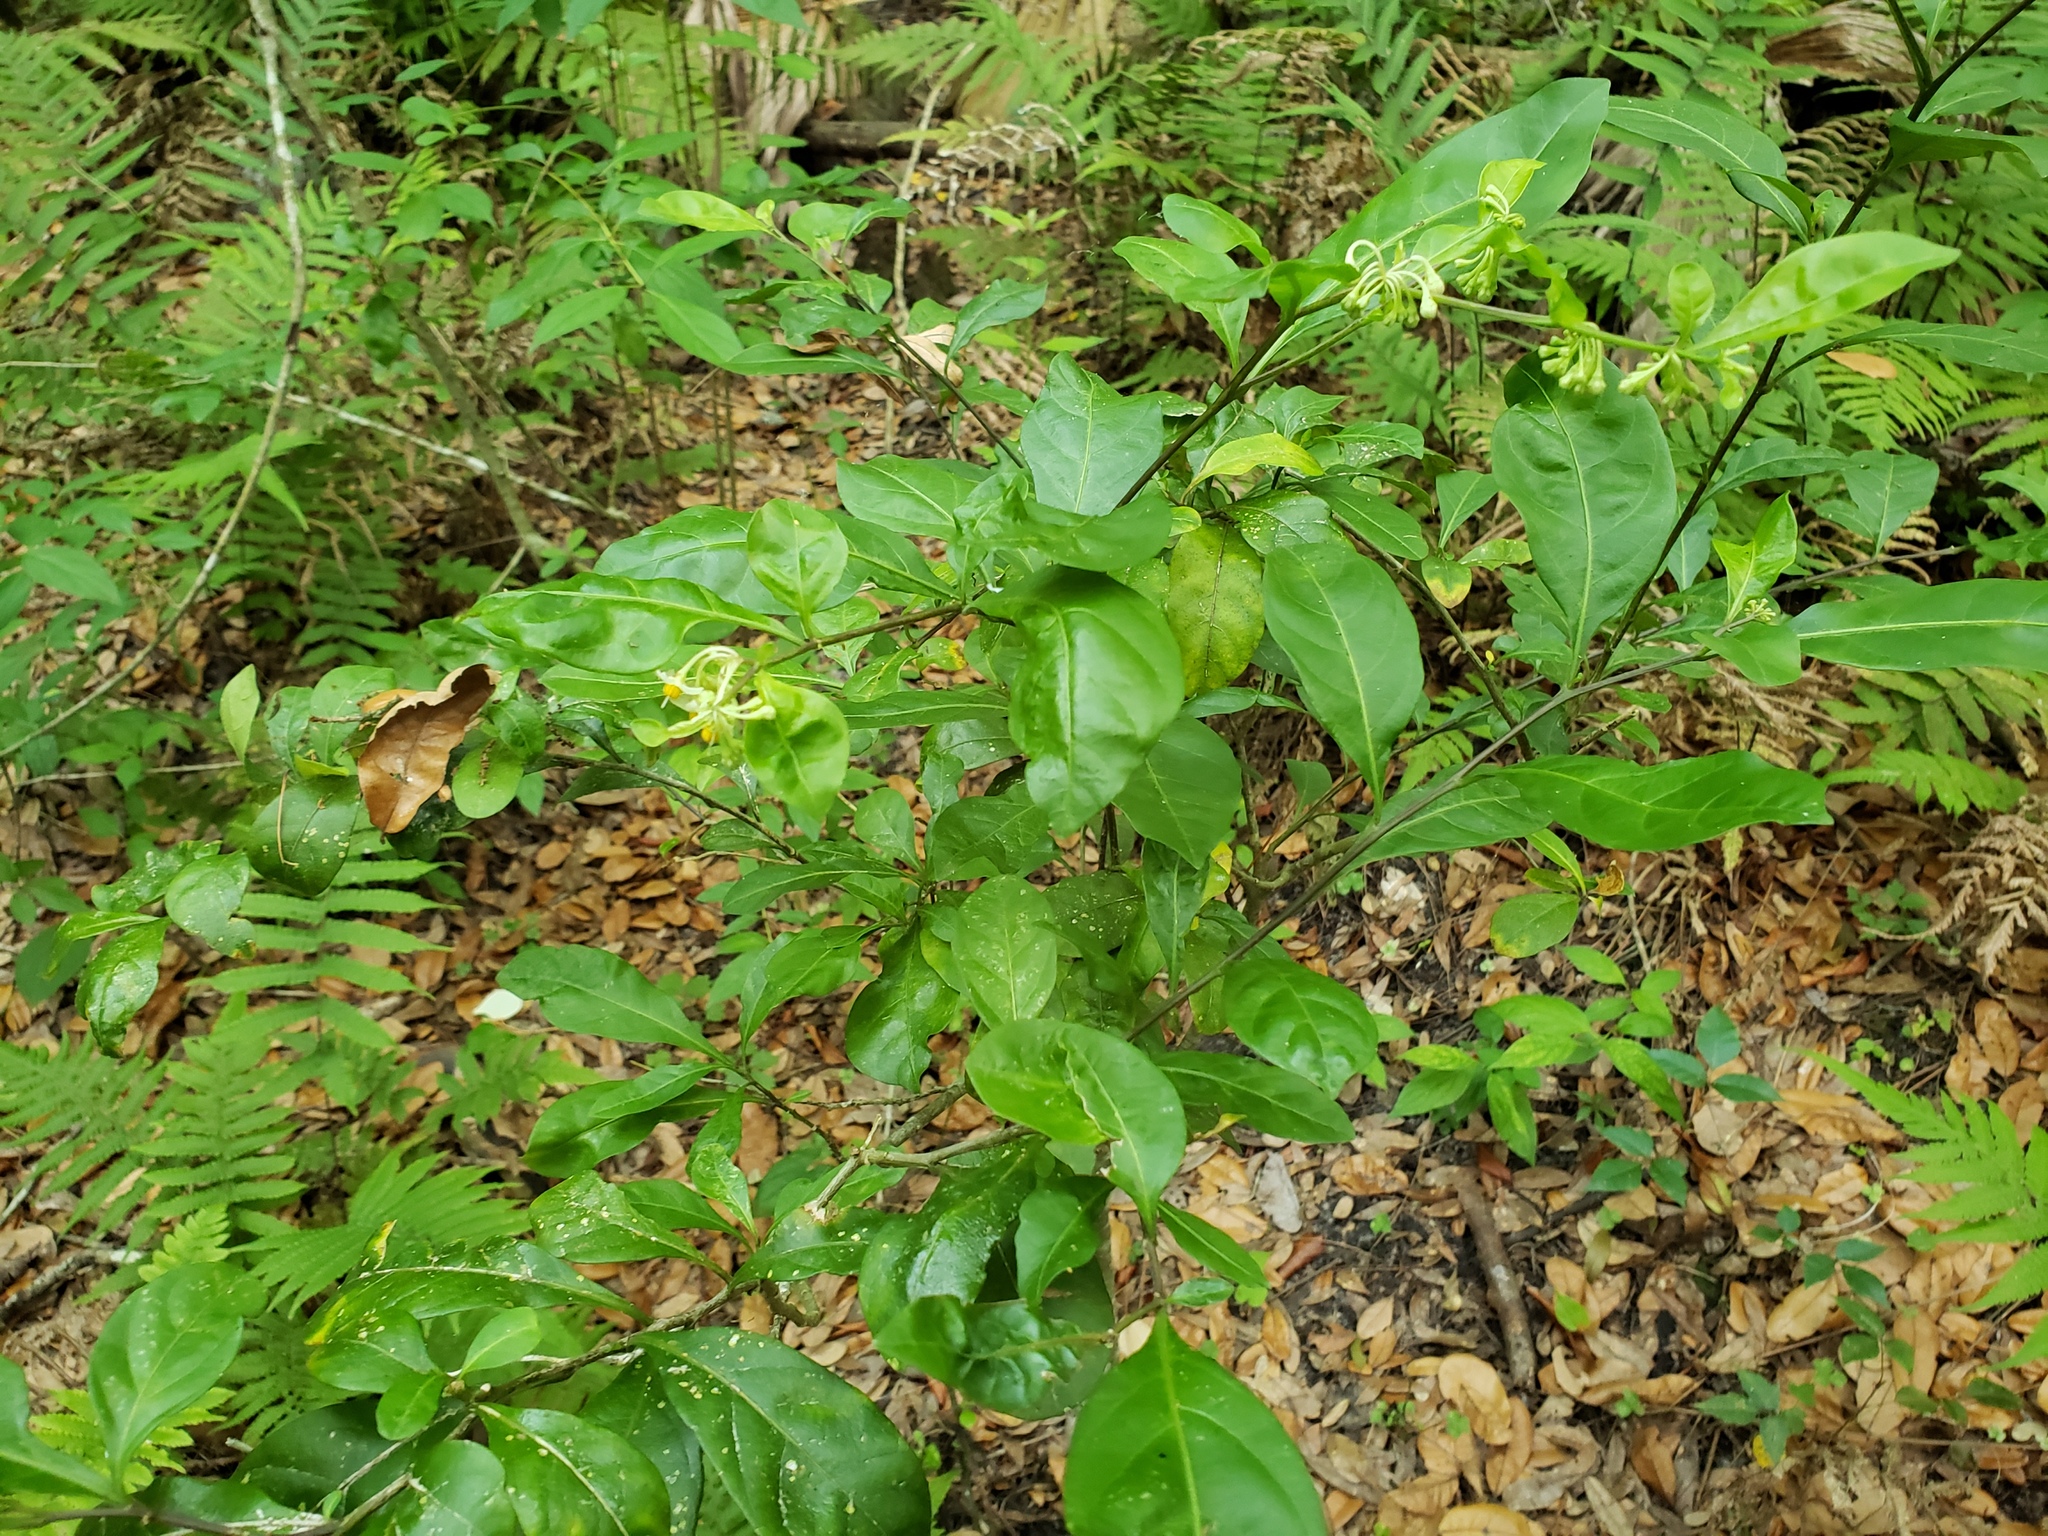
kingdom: Plantae
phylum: Tracheophyta
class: Magnoliopsida
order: Solanales
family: Solanaceae
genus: Solanum
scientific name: Solanum diphyllum
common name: Twoleaf nightshade
